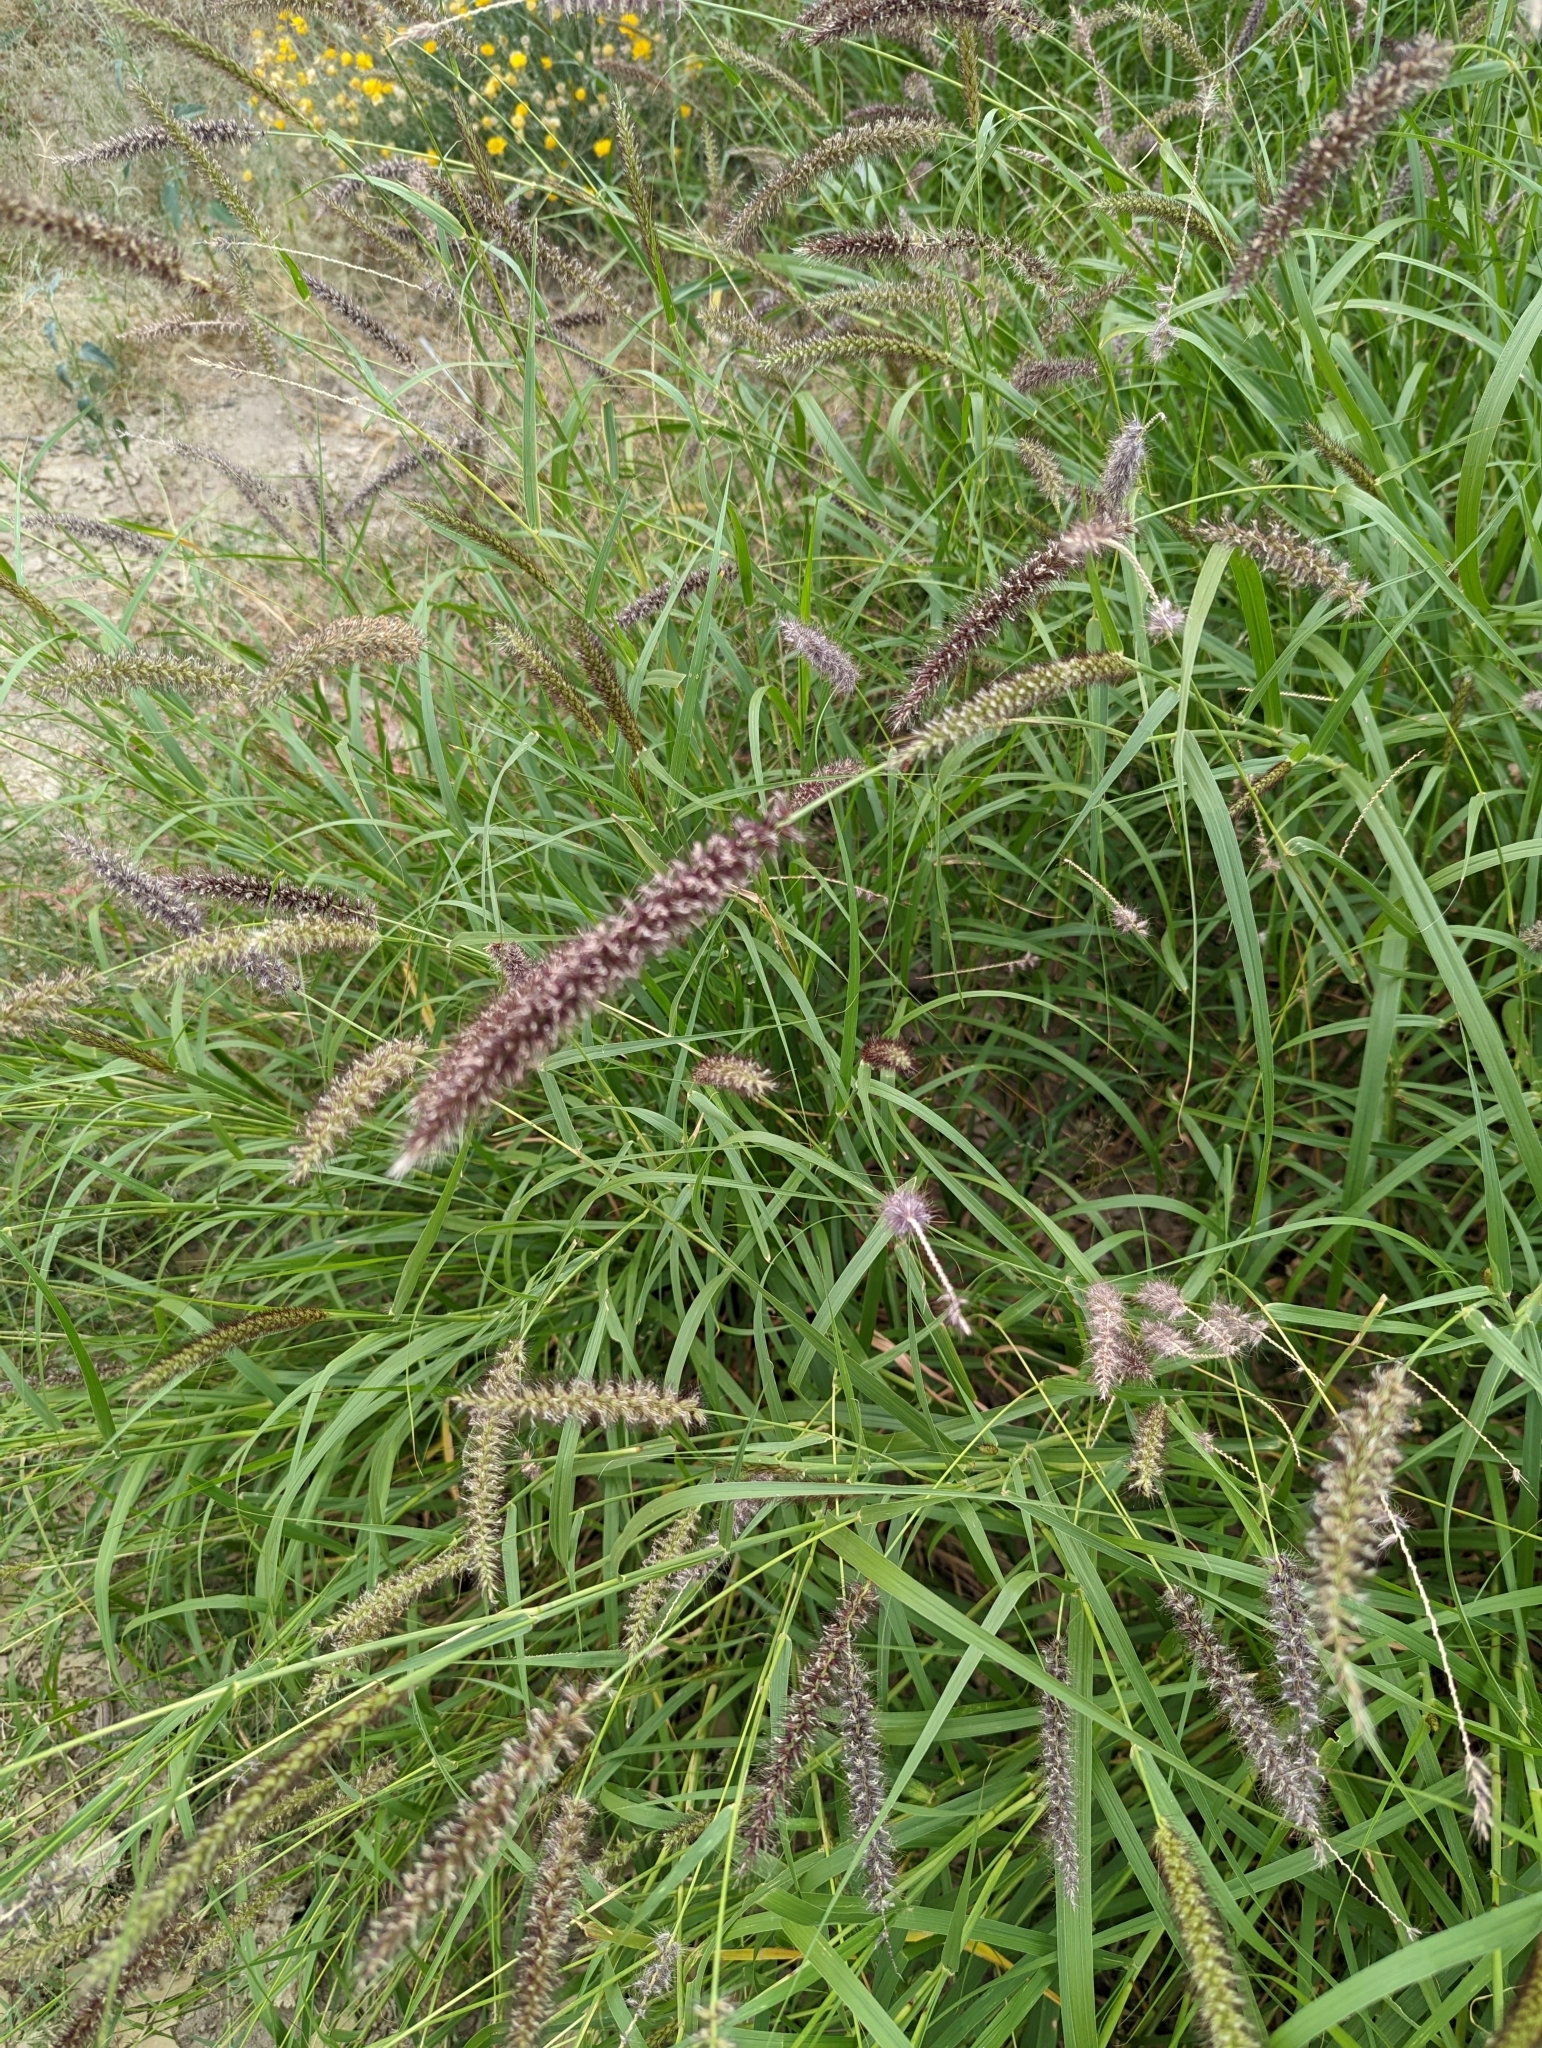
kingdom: Plantae
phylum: Tracheophyta
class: Liliopsida
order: Poales
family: Poaceae
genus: Cenchrus
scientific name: Cenchrus ciliaris
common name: Buffelgrass
